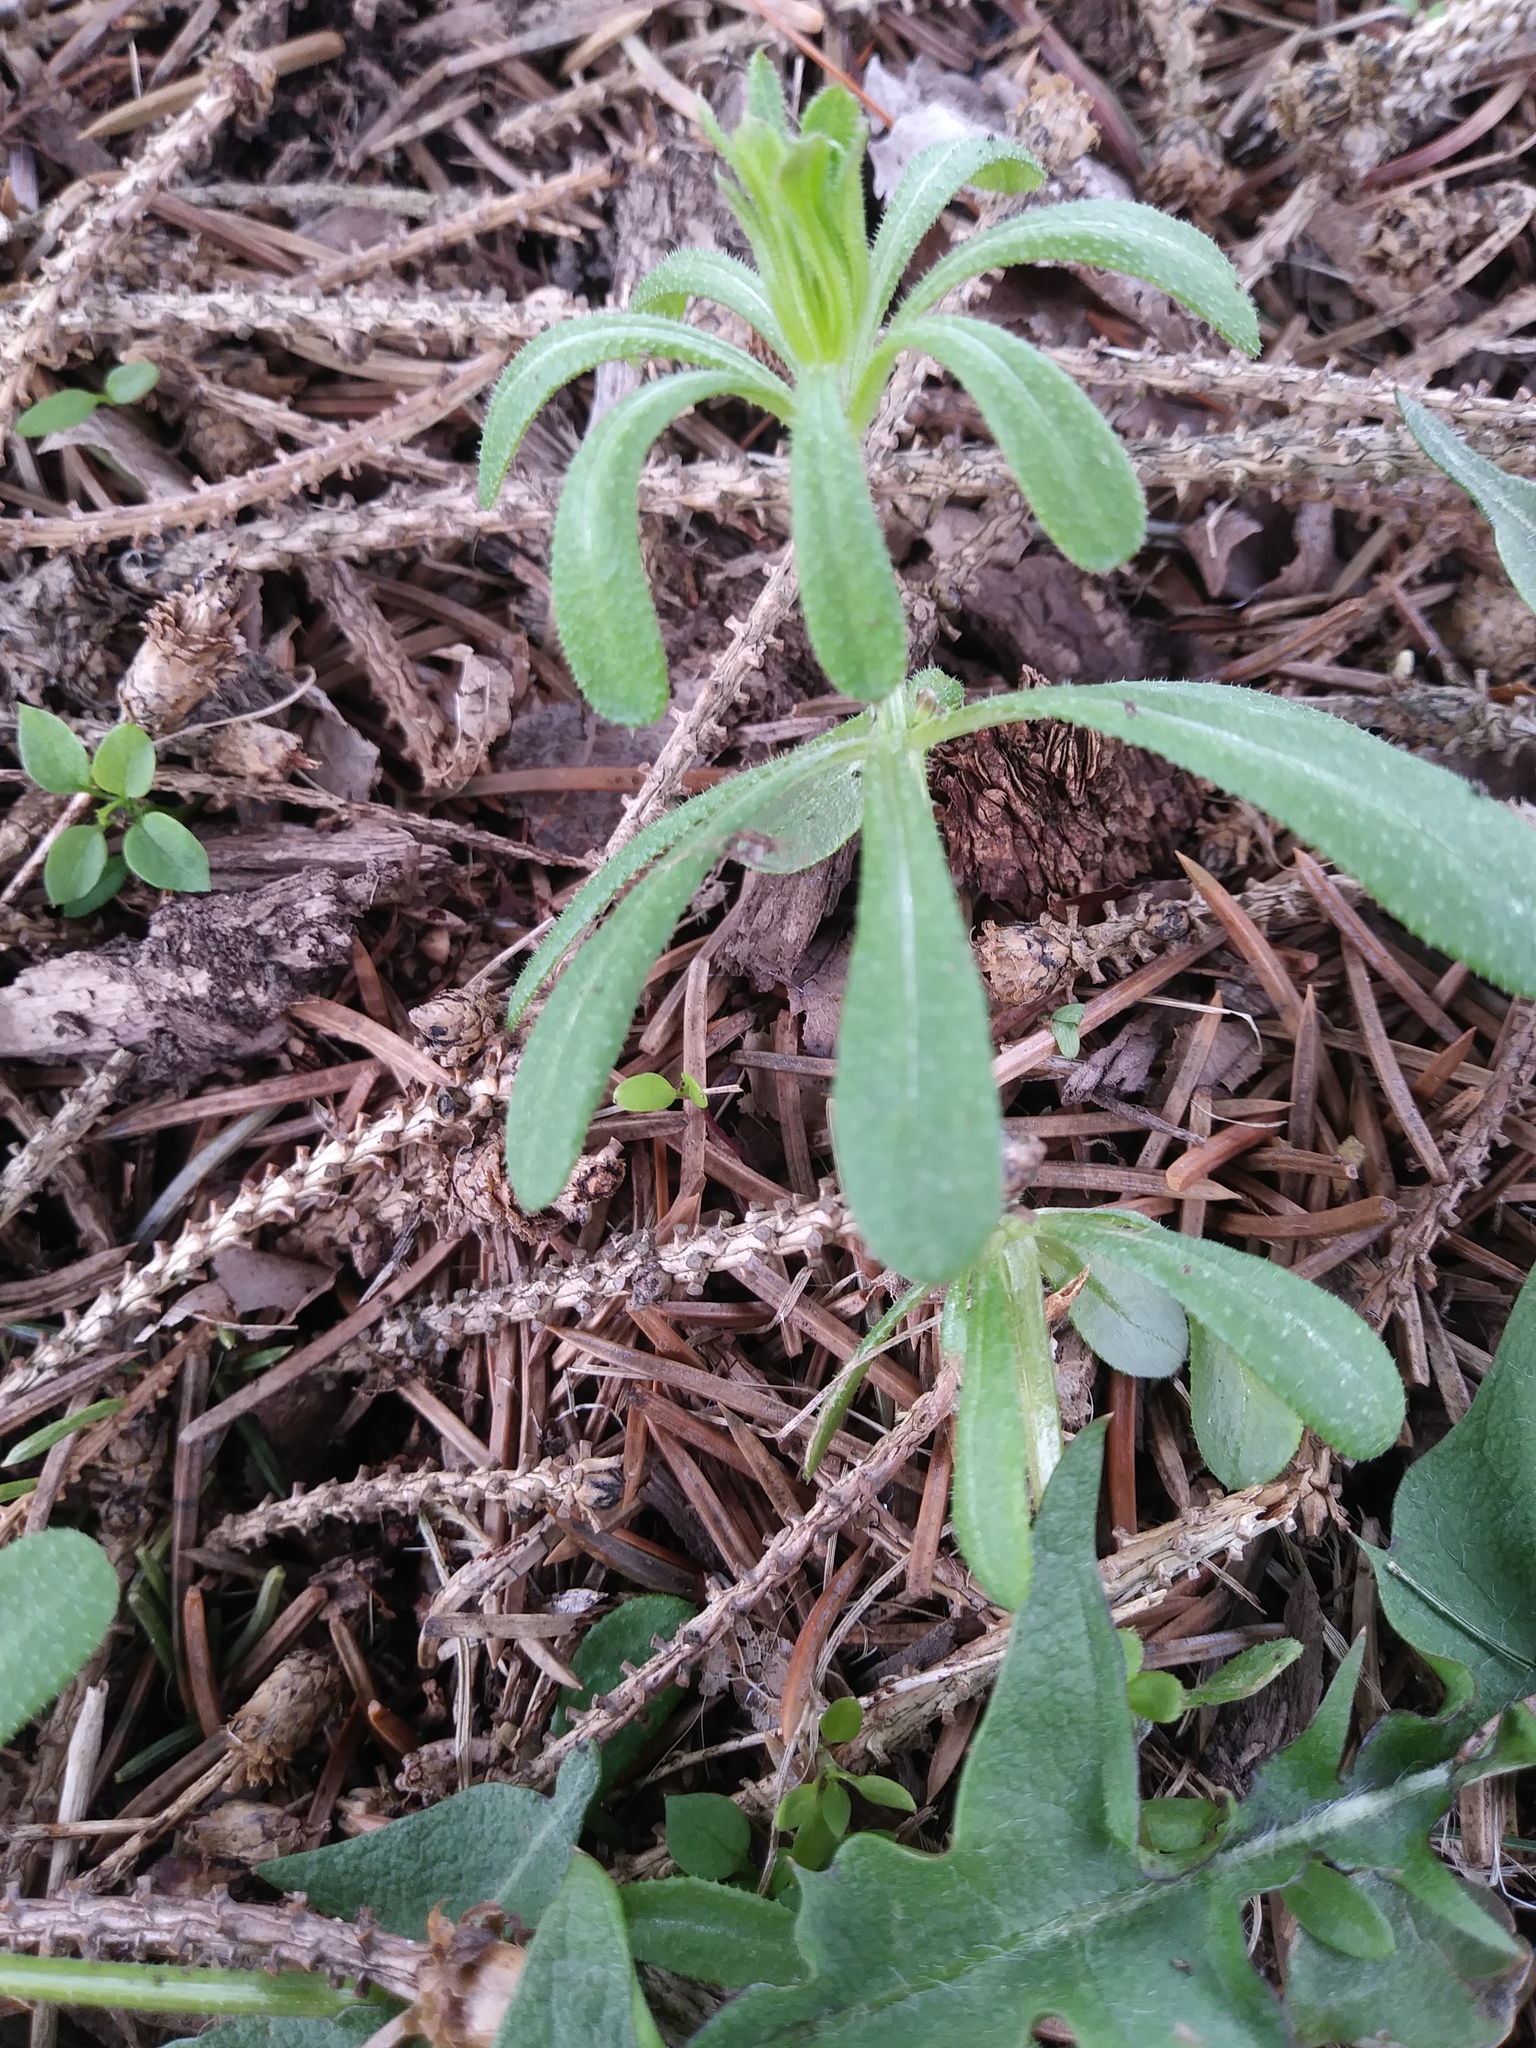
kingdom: Plantae
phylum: Tracheophyta
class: Magnoliopsida
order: Gentianales
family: Rubiaceae
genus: Galium
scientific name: Galium aparine
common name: Cleavers
